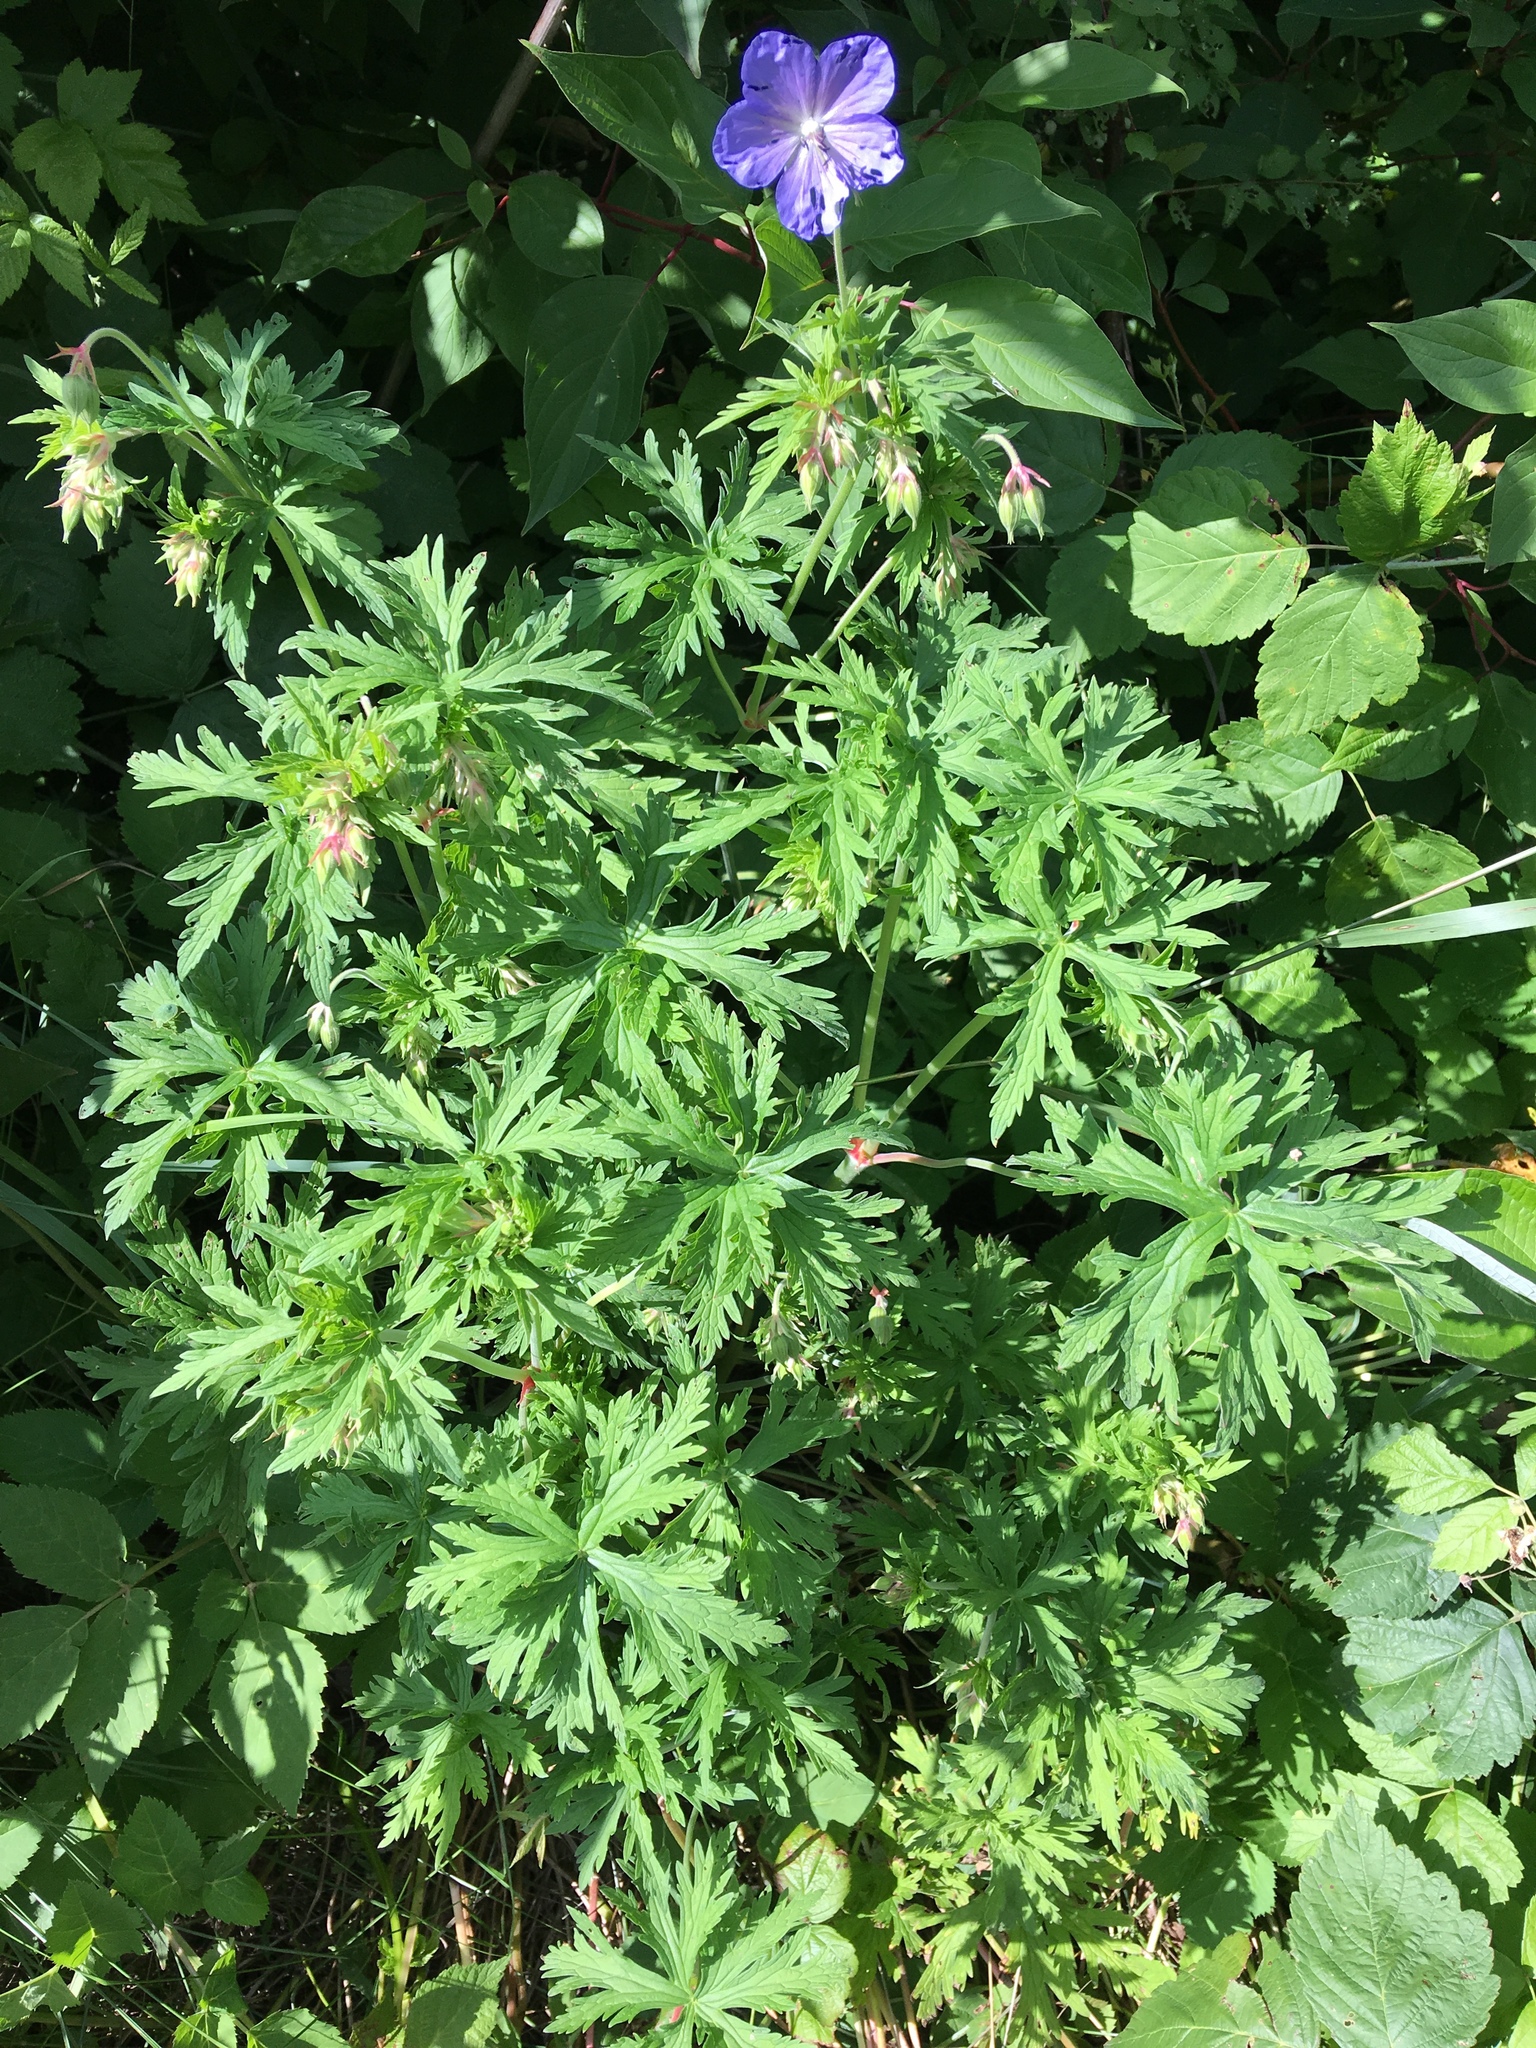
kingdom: Plantae
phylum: Tracheophyta
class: Magnoliopsida
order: Geraniales
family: Geraniaceae
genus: Geranium
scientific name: Geranium pratense
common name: Meadow crane's-bill
